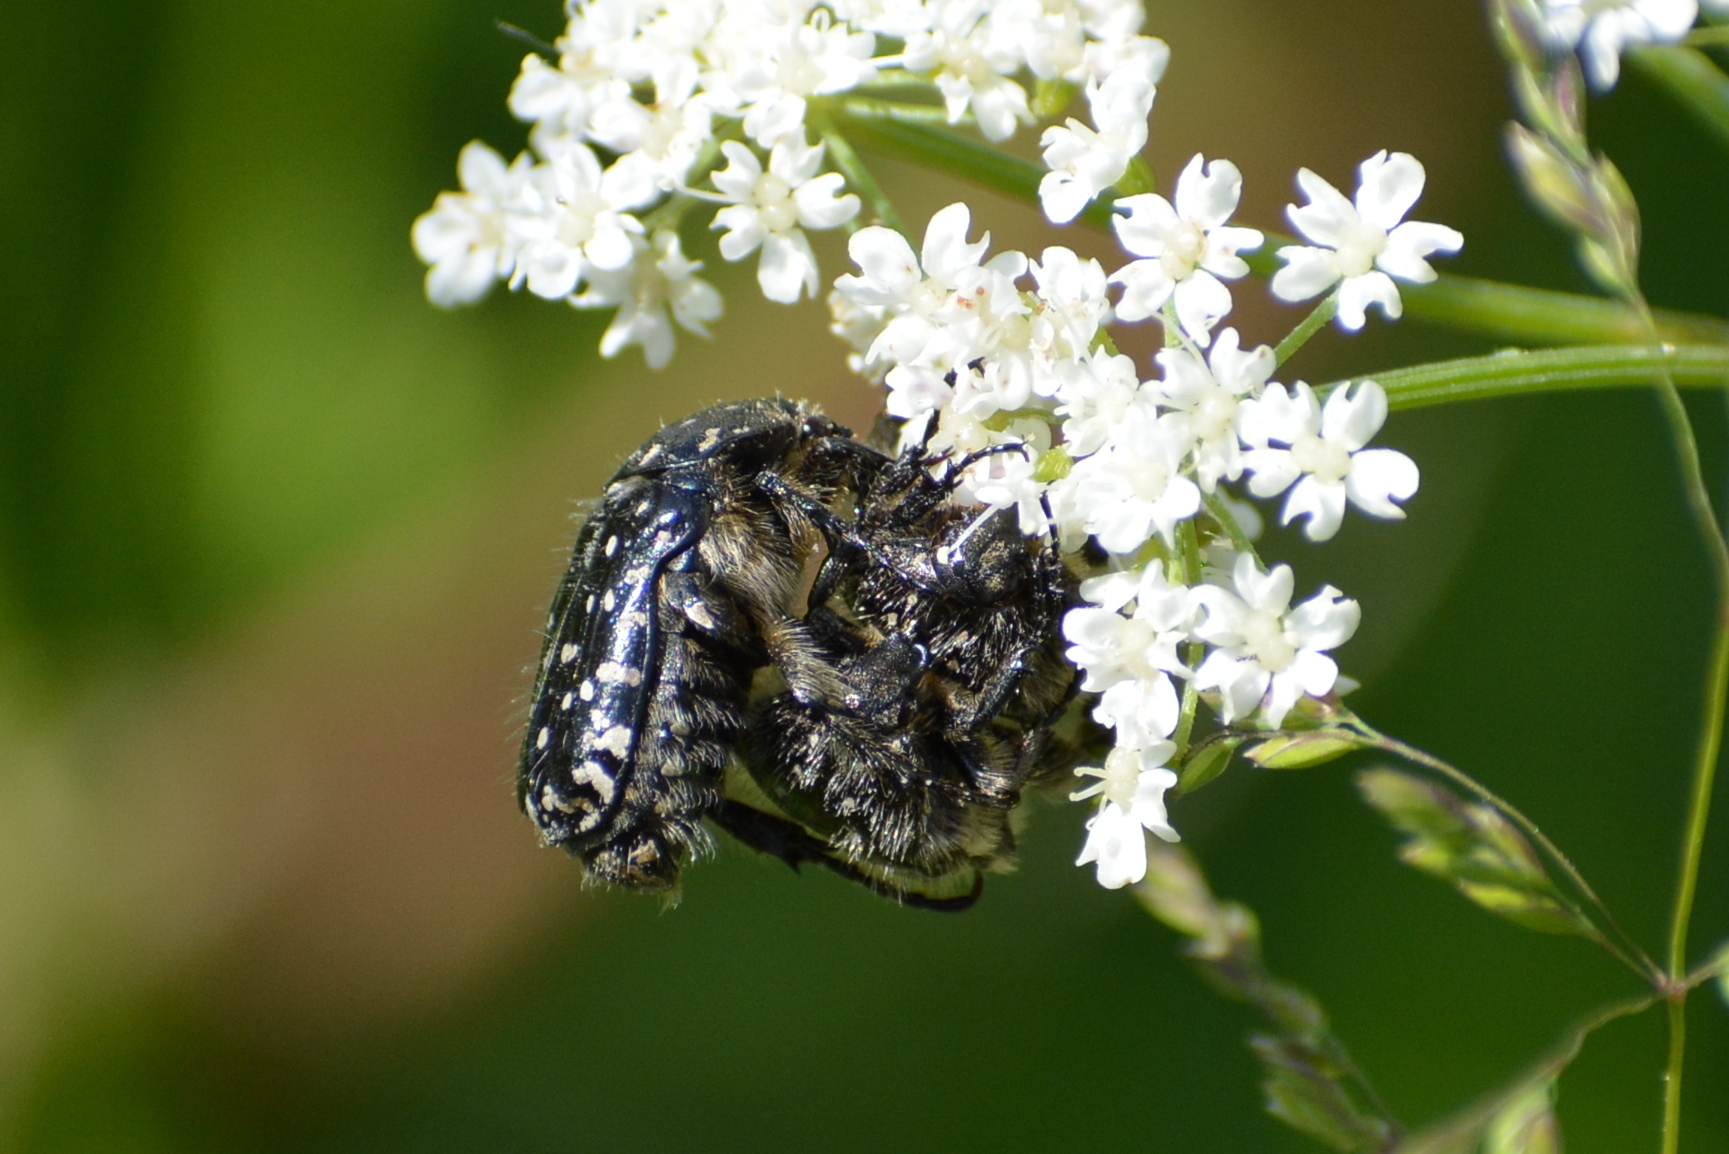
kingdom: Animalia
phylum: Arthropoda
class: Insecta
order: Coleoptera
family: Scarabaeidae
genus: Oxythyrea
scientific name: Oxythyrea funesta
